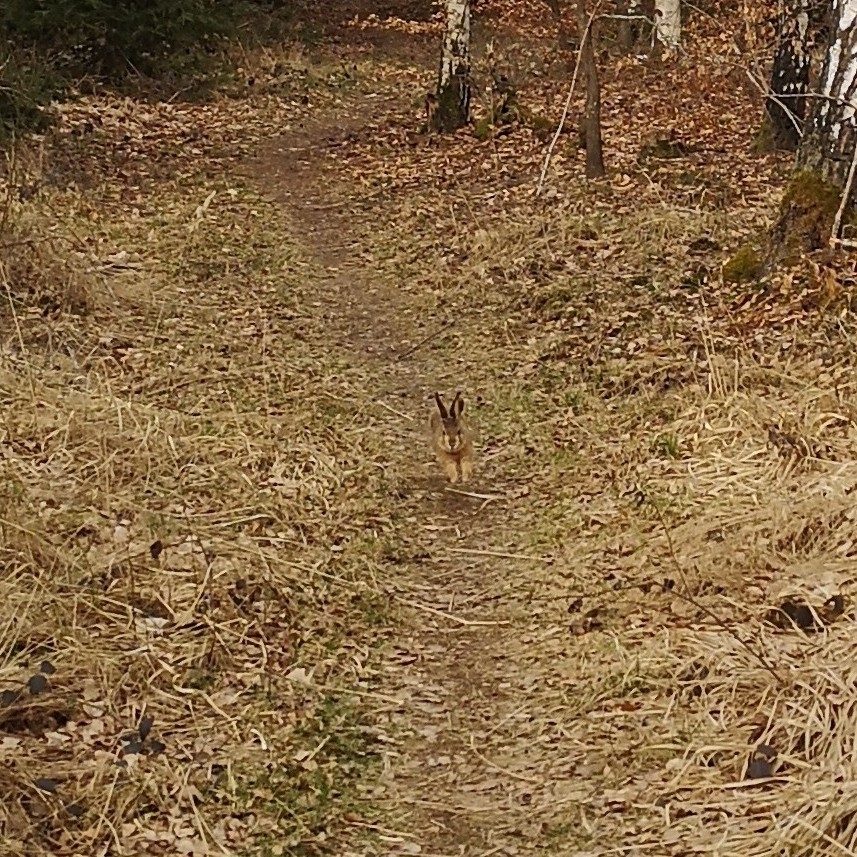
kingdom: Animalia
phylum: Chordata
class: Mammalia
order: Lagomorpha
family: Leporidae
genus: Lepus
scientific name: Lepus europaeus
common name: European hare
